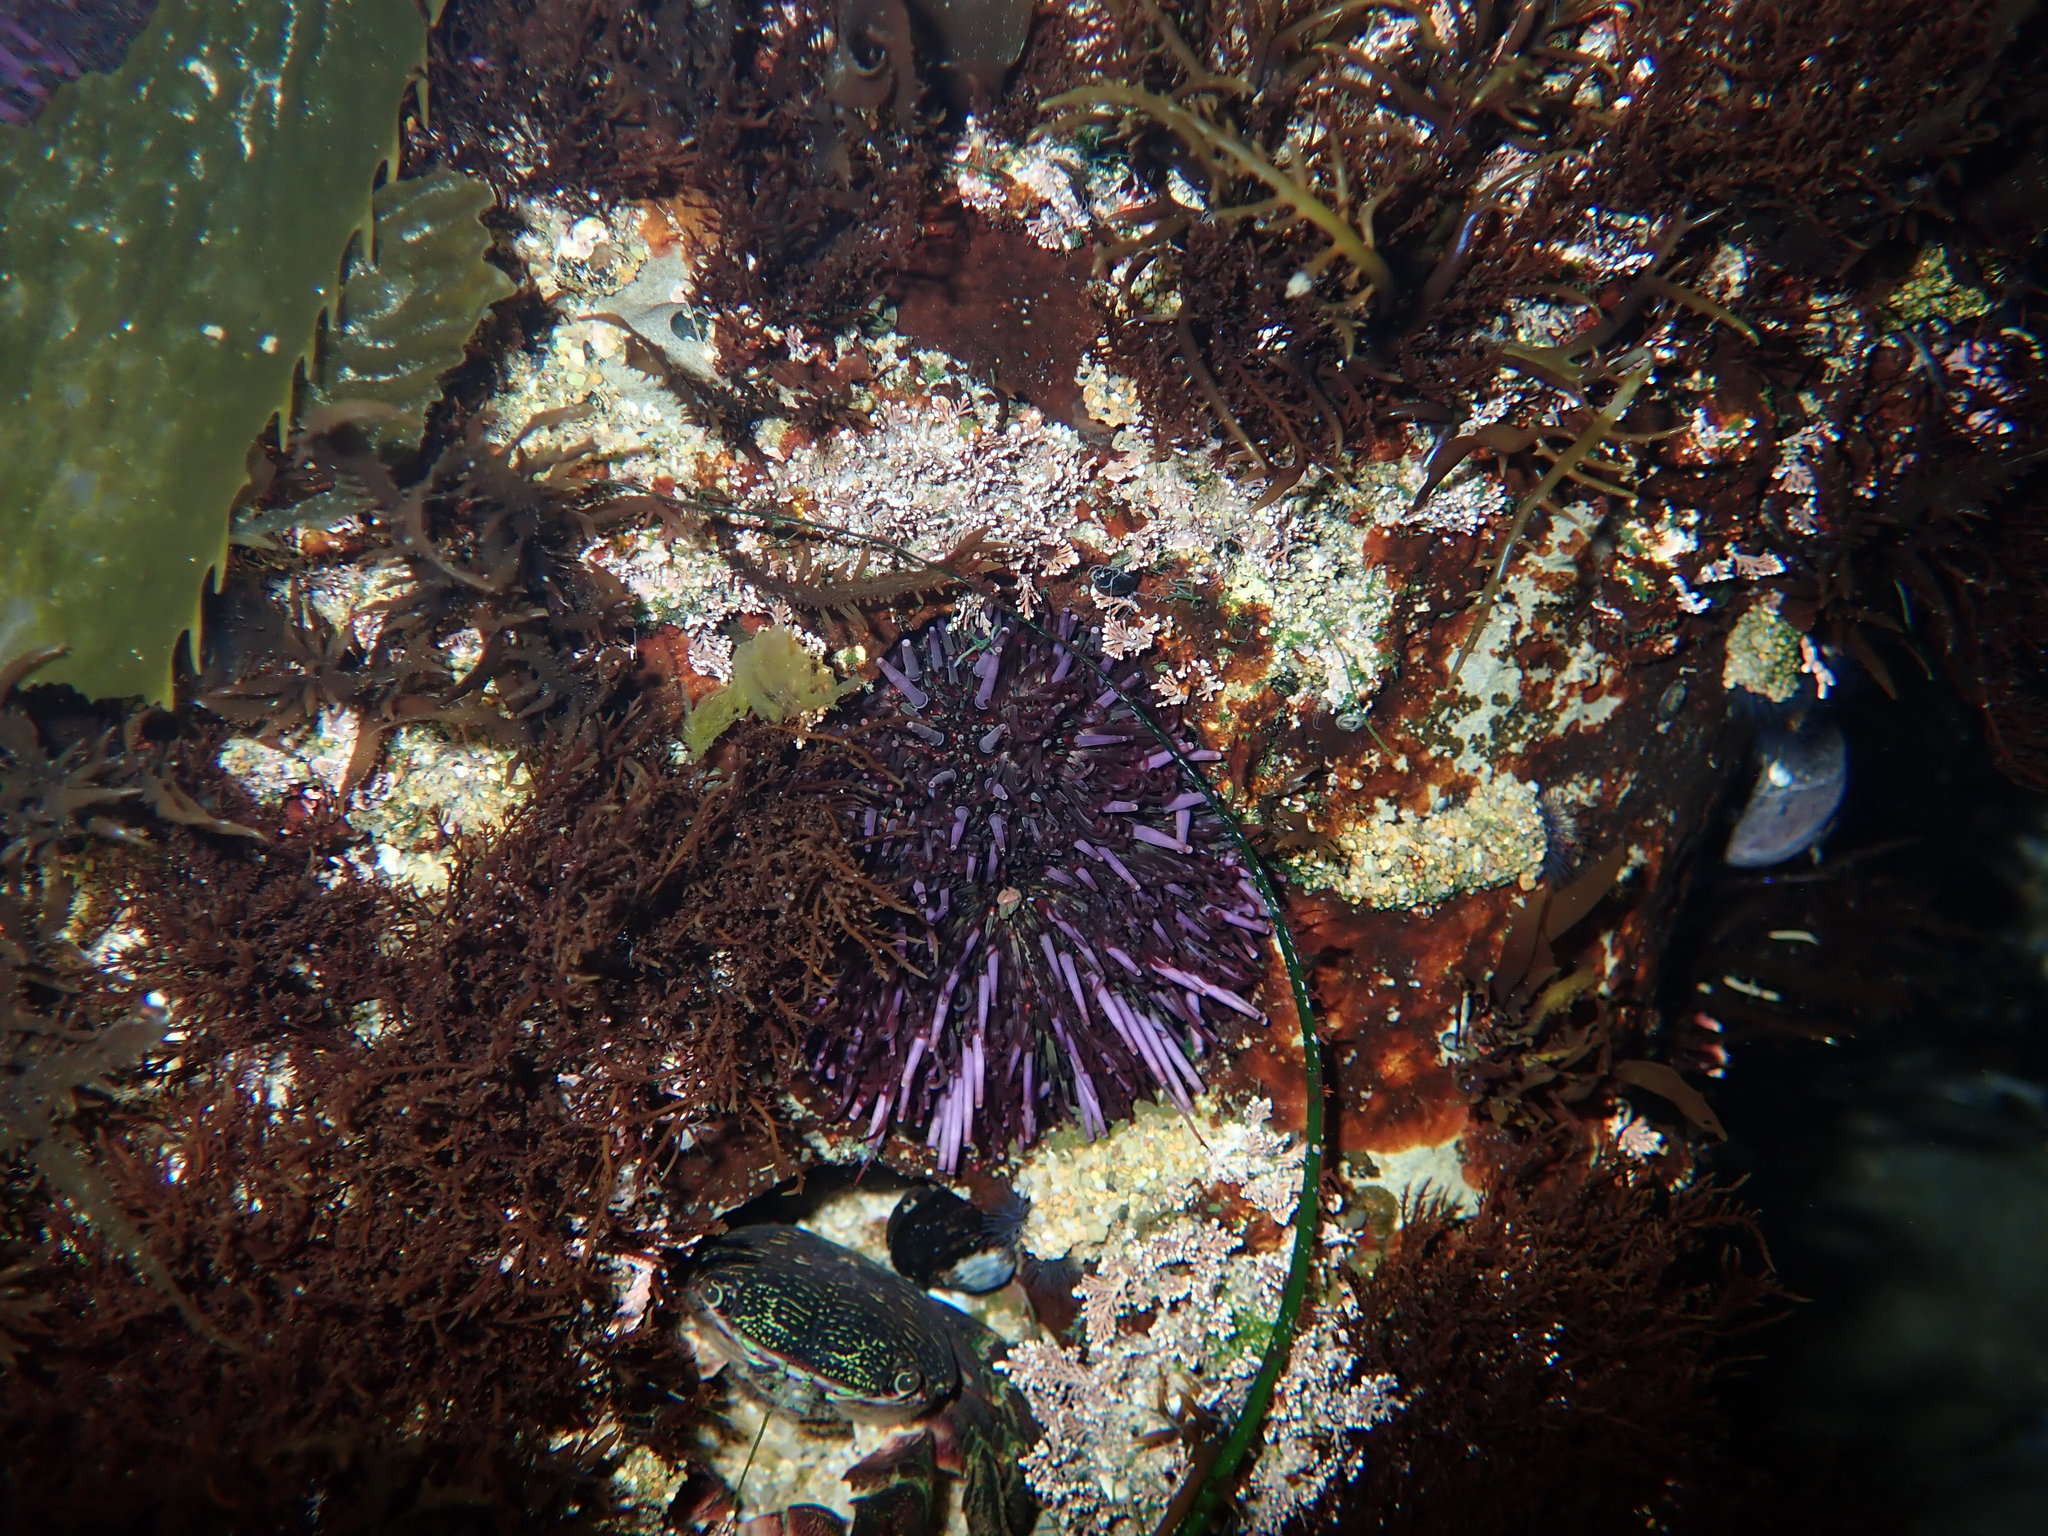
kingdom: Animalia
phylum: Echinodermata
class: Echinoidea
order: Camarodonta
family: Strongylocentrotidae
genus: Strongylocentrotus
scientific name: Strongylocentrotus purpuratus
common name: Purple sea urchin
